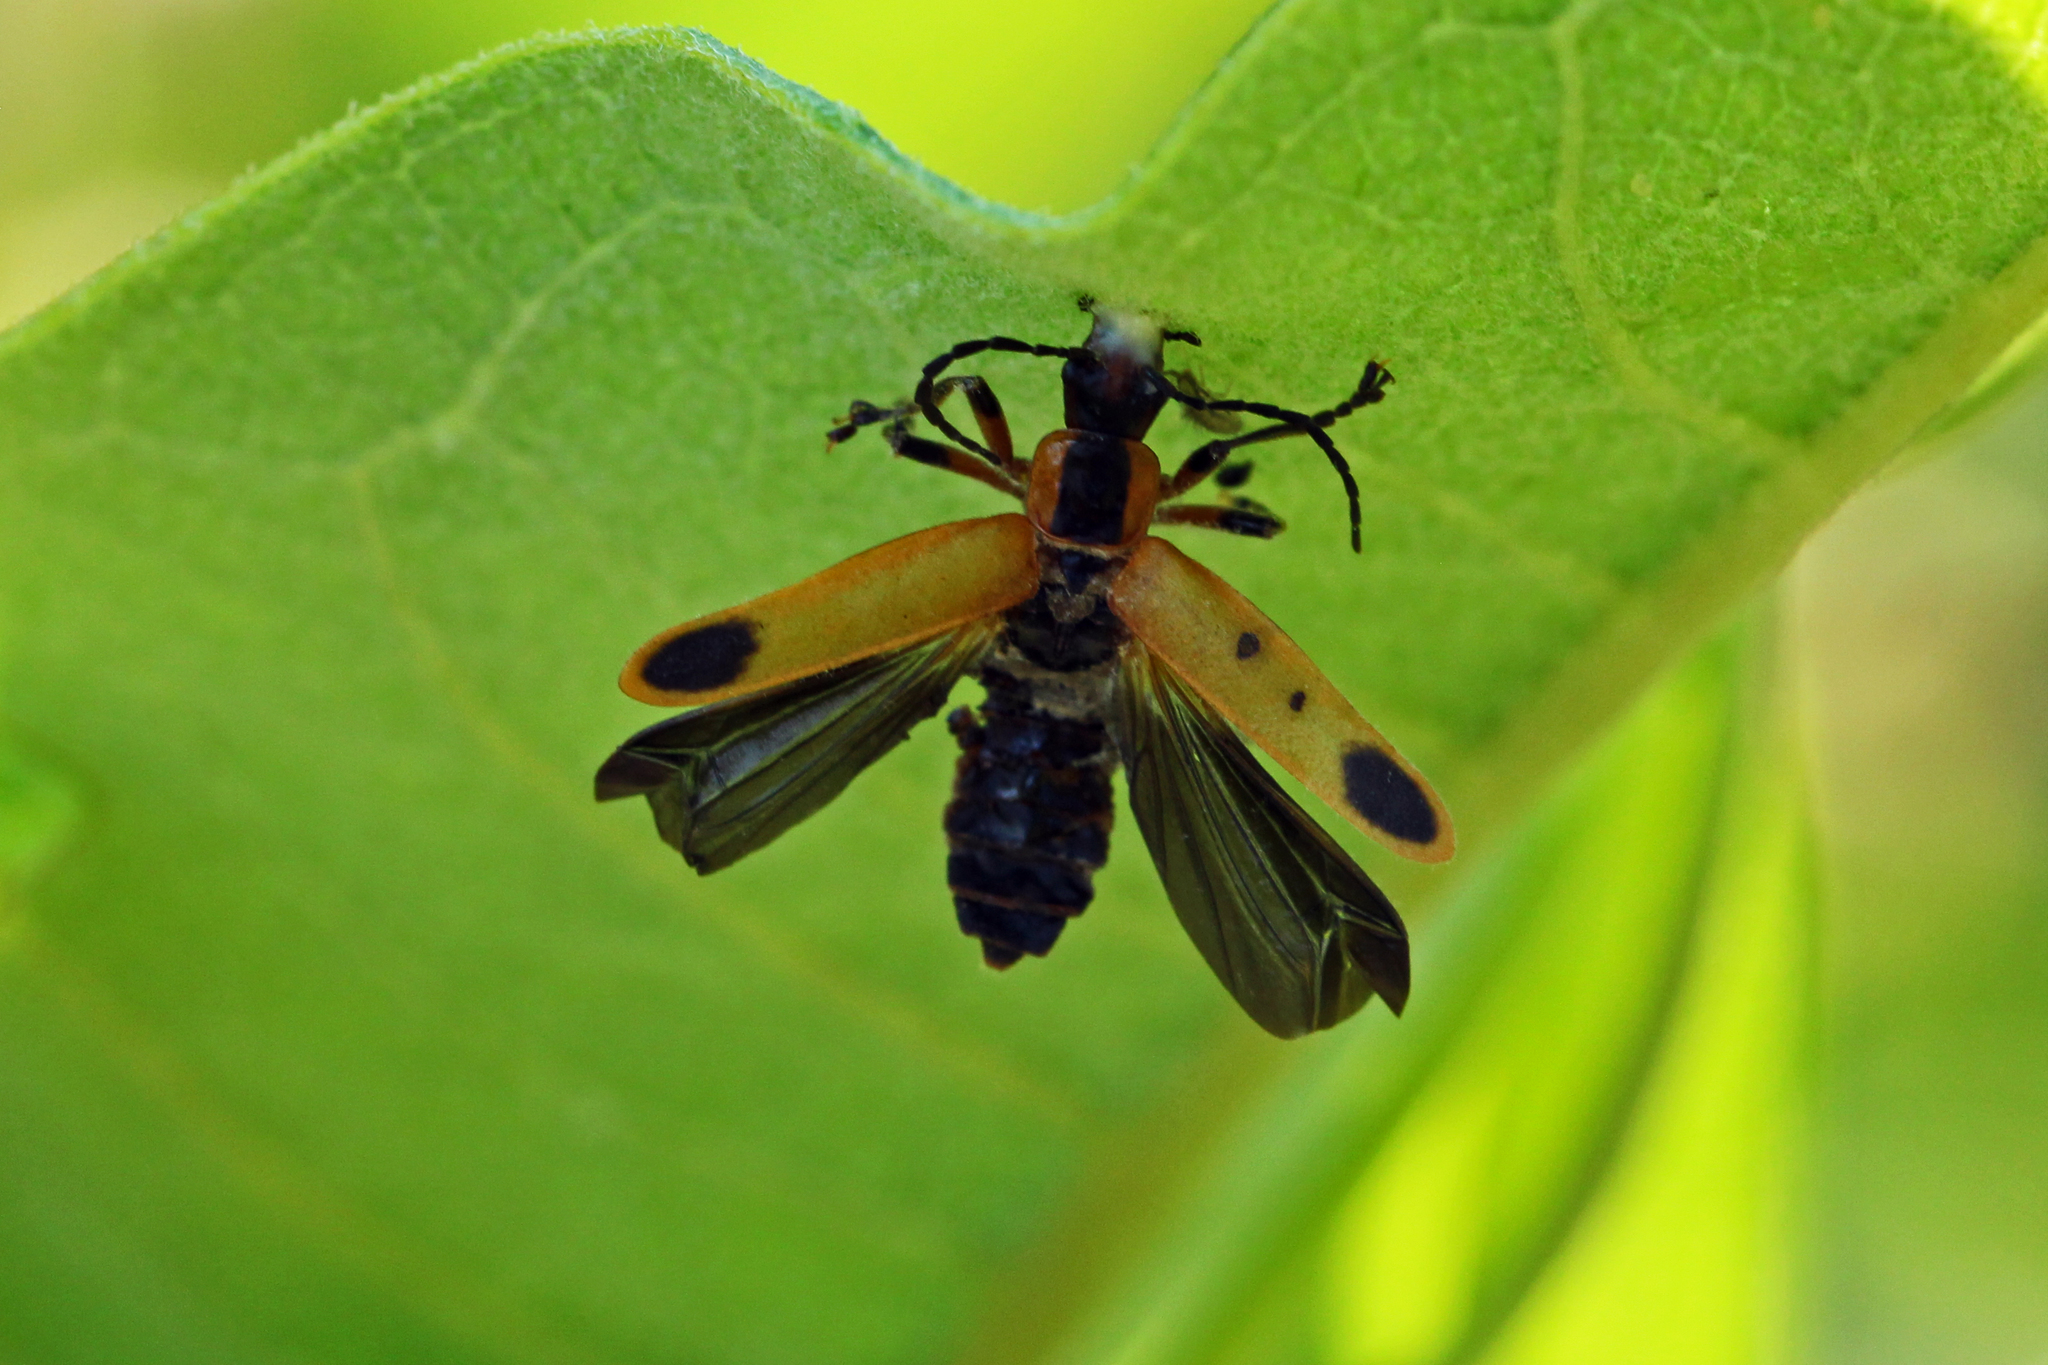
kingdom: Animalia
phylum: Arthropoda
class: Insecta
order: Coleoptera
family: Cantharidae
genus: Chauliognathus
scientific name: Chauliognathus marginatus
